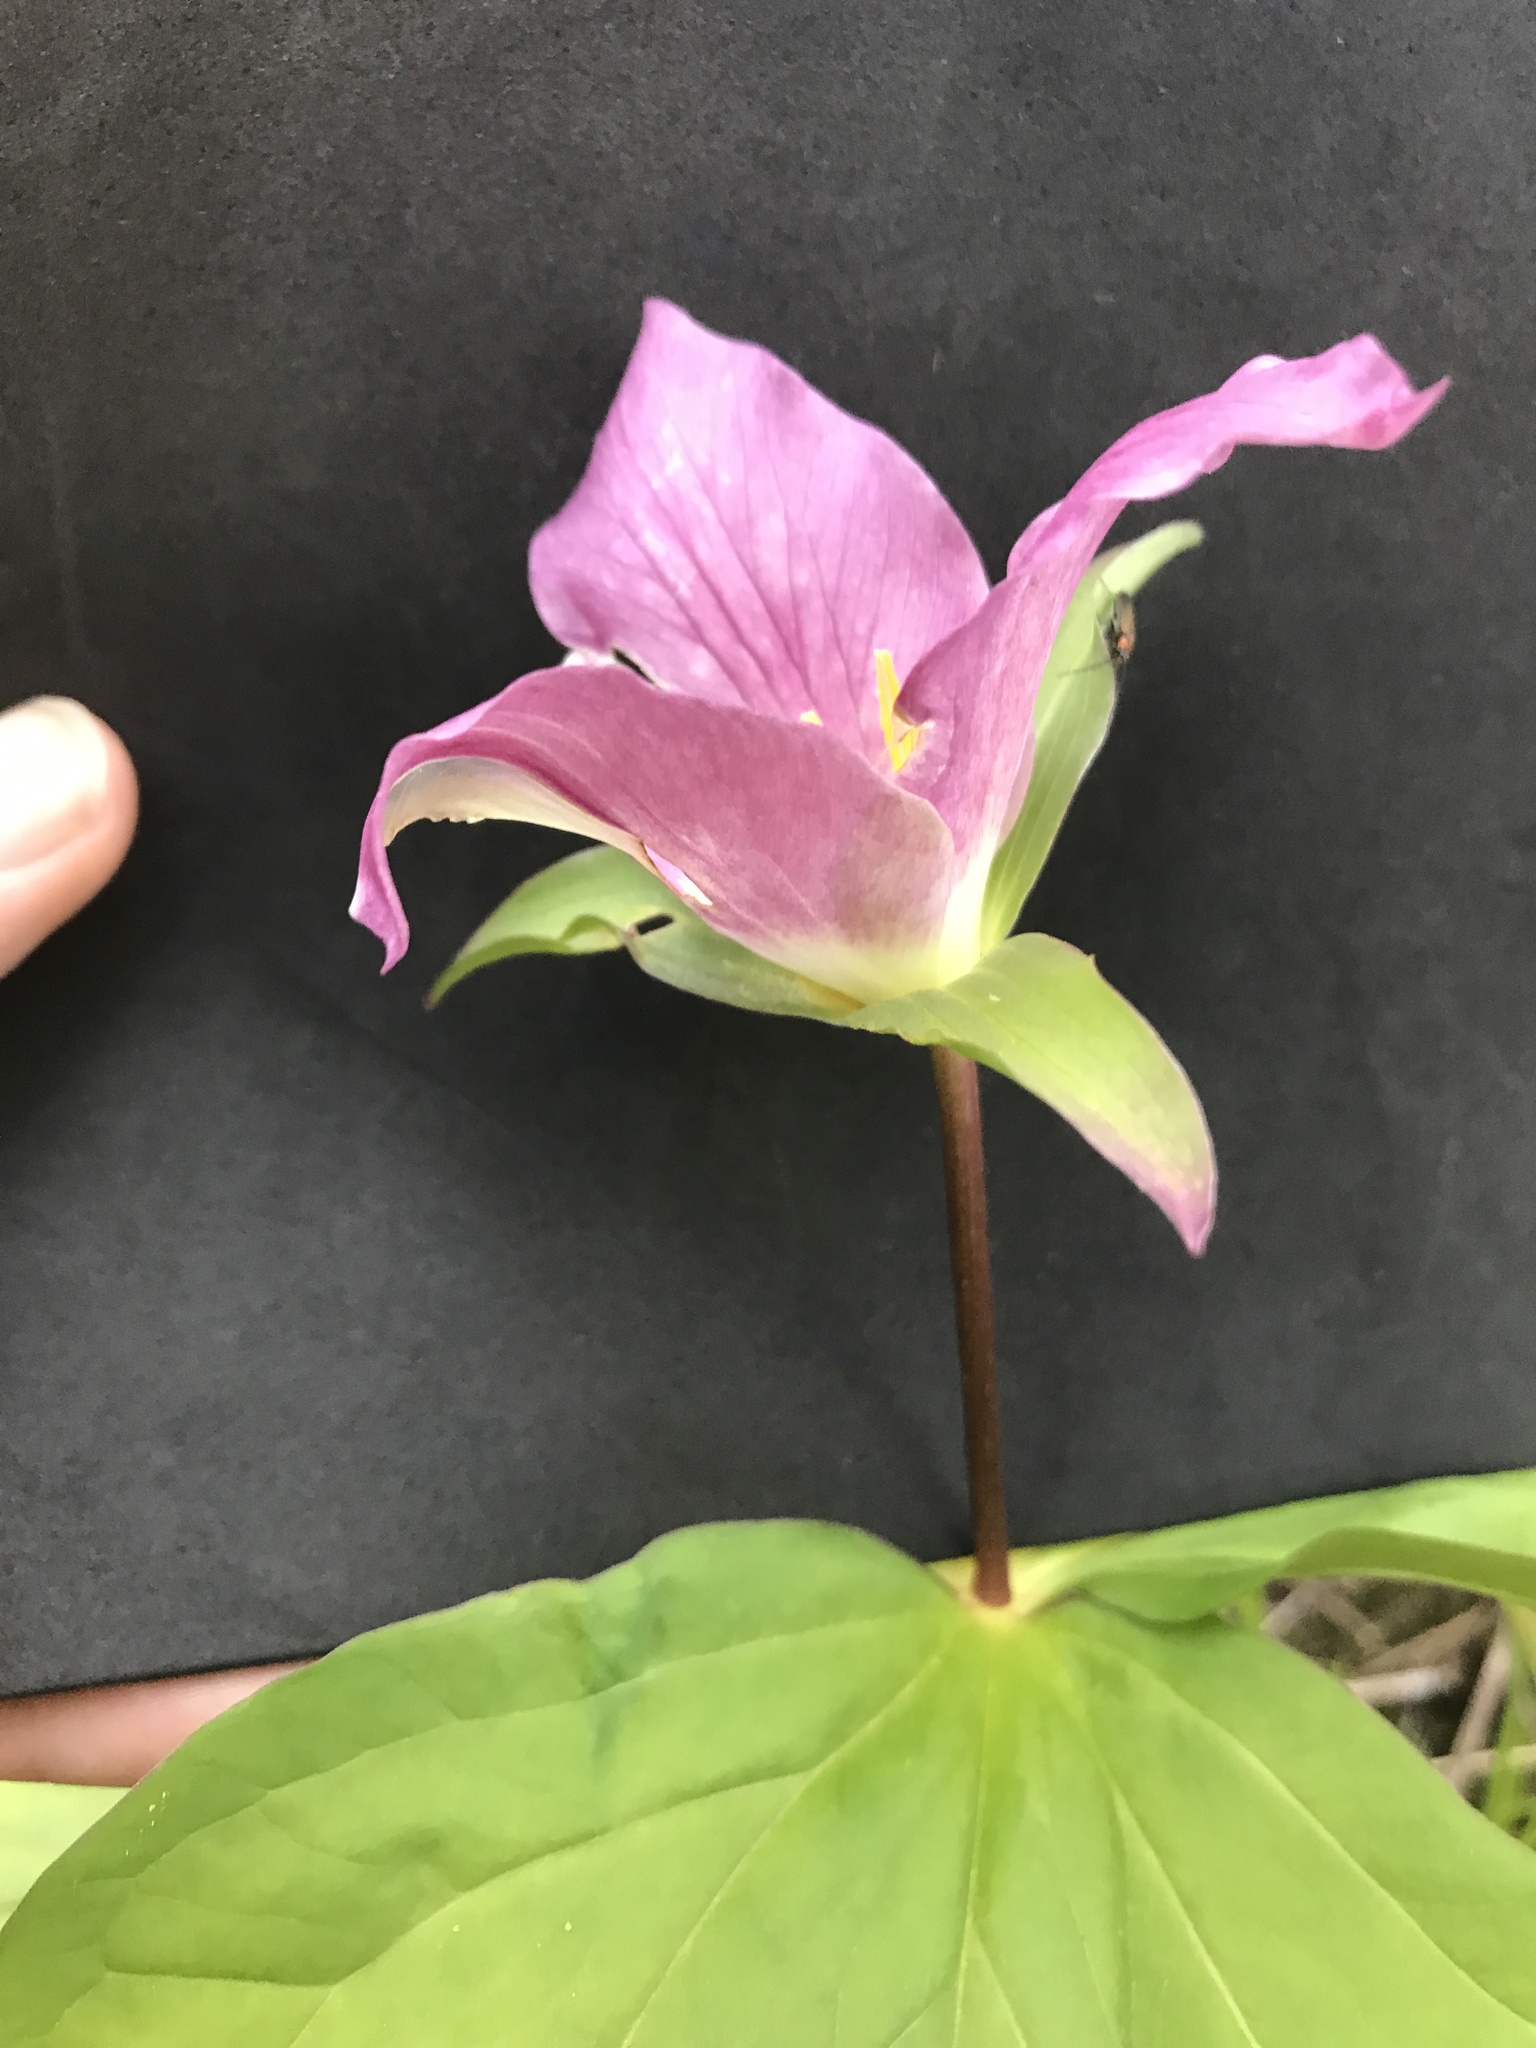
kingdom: Plantae
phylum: Tracheophyta
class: Liliopsida
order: Liliales
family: Melanthiaceae
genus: Trillium
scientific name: Trillium ovatum
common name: Pacific trillium
